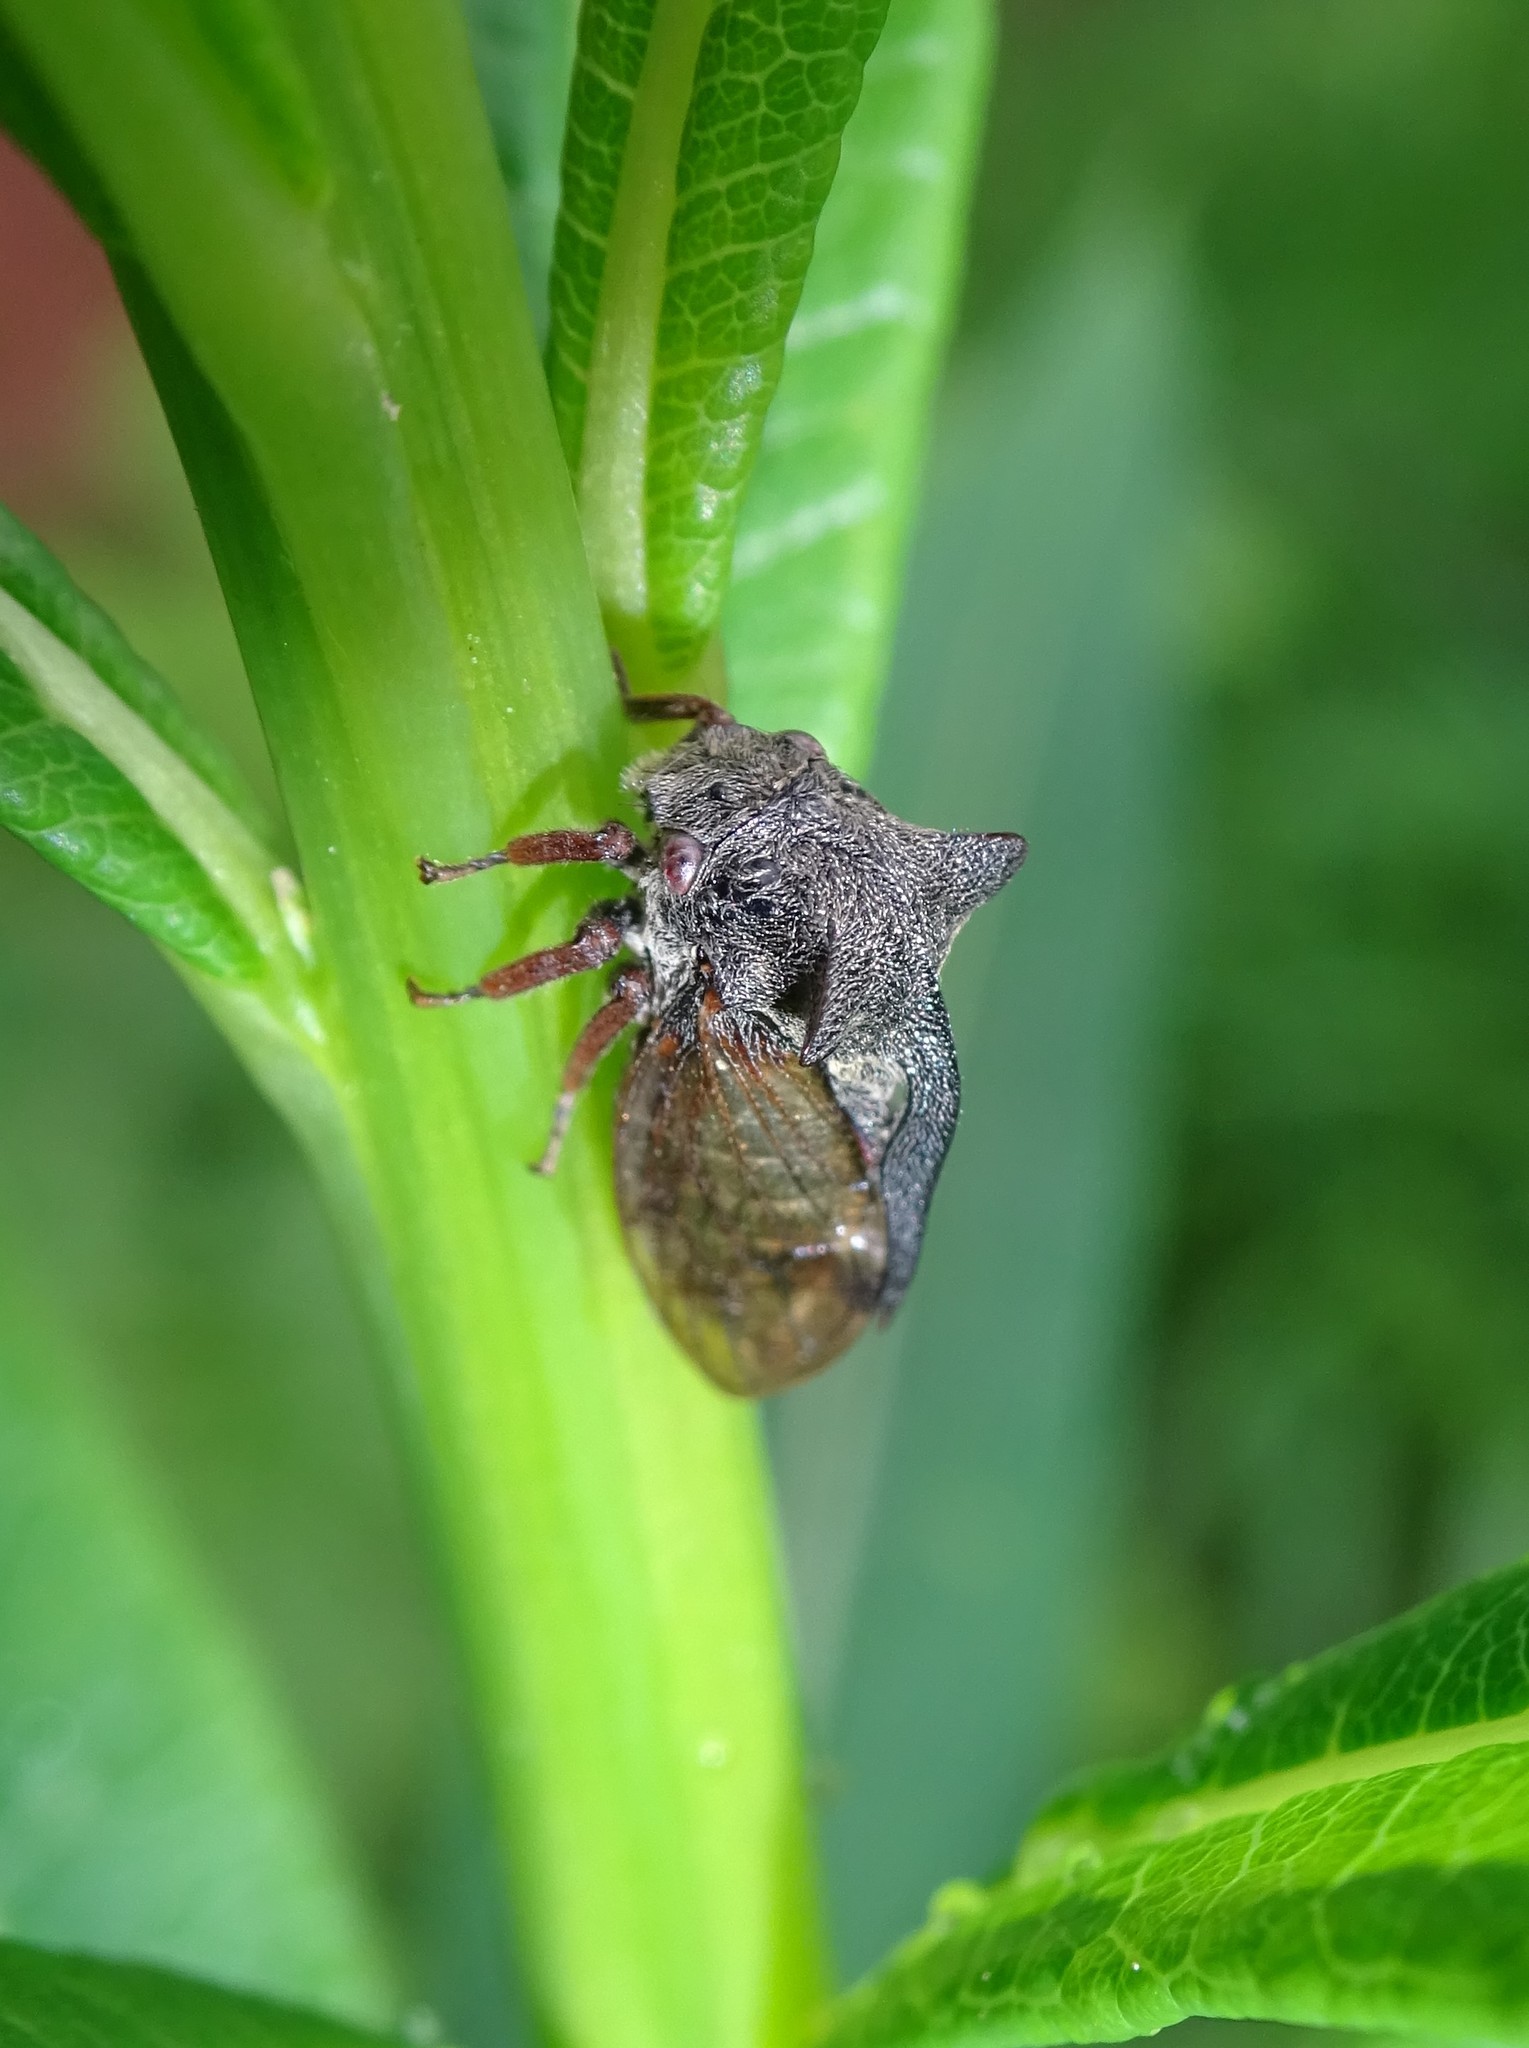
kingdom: Animalia
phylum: Arthropoda
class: Insecta
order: Hemiptera
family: Membracidae
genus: Centrotus
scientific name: Centrotus cornuta
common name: Treehopper
